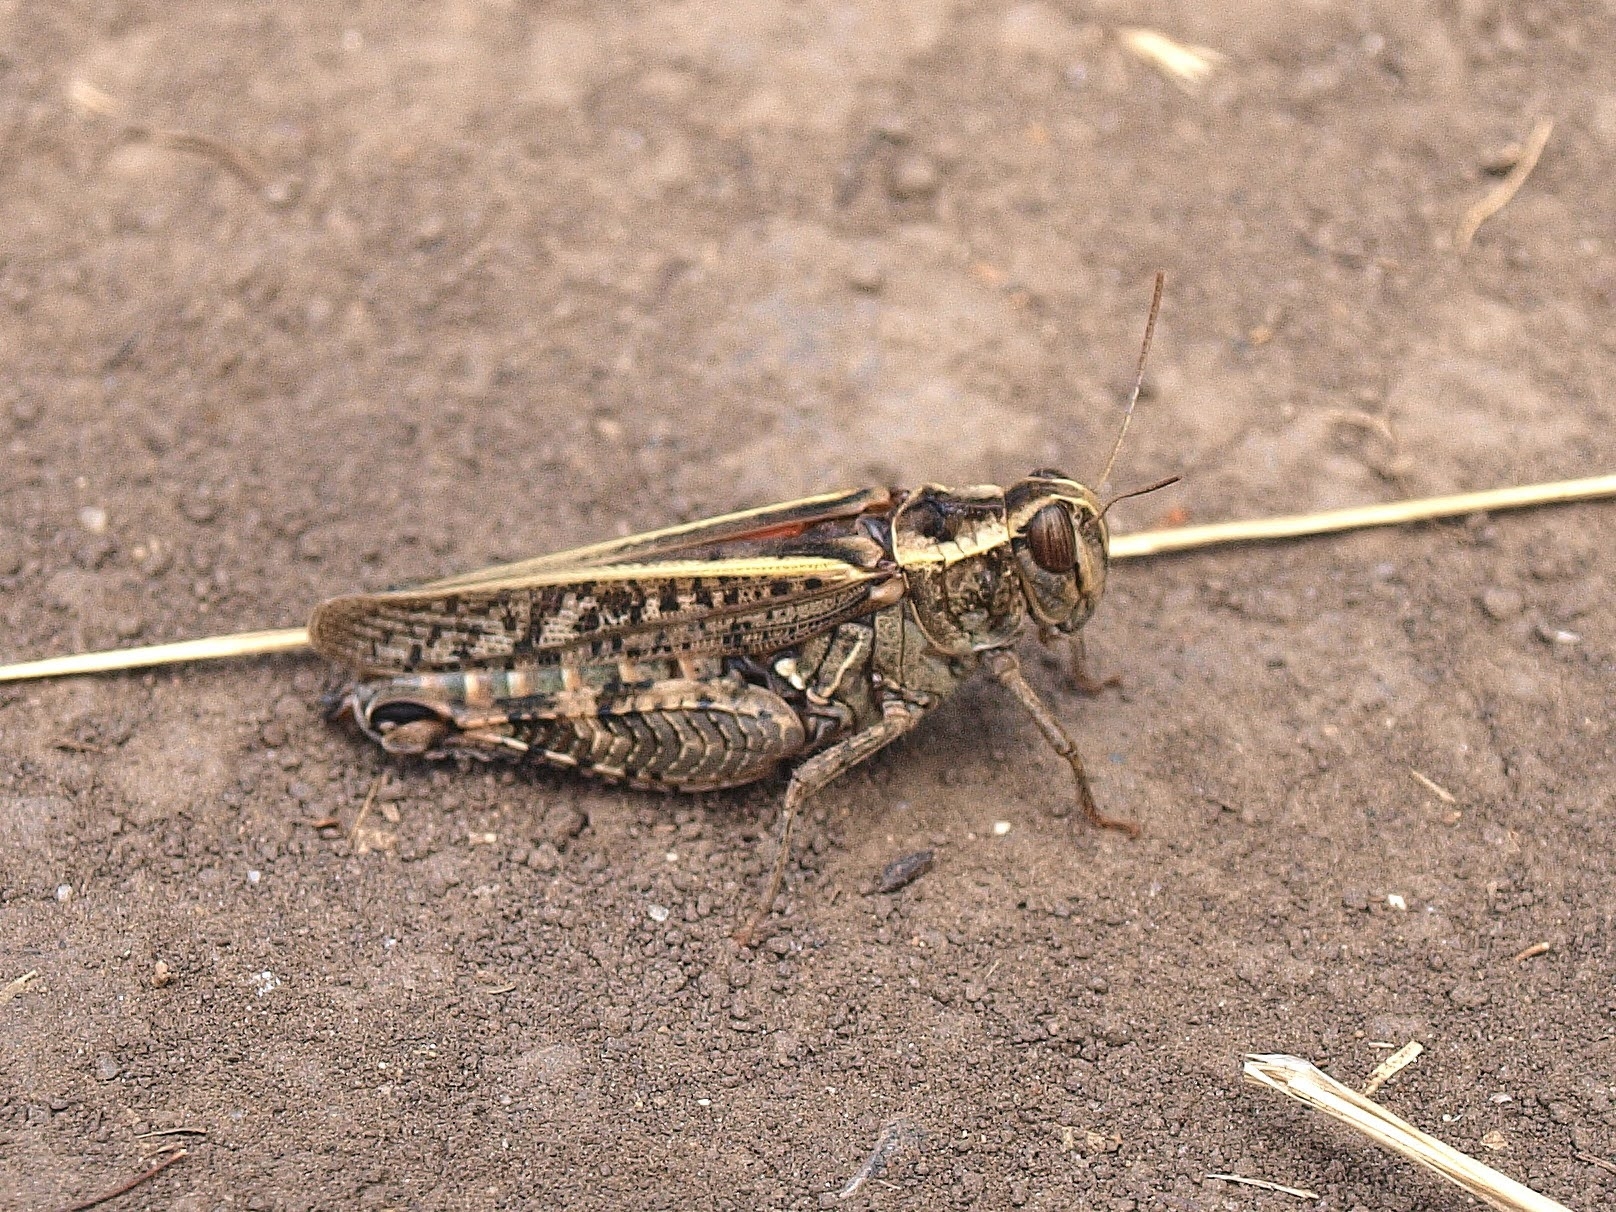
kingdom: Animalia
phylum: Arthropoda
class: Insecta
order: Orthoptera
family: Acrididae
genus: Calliptamus
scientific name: Calliptamus italicus
